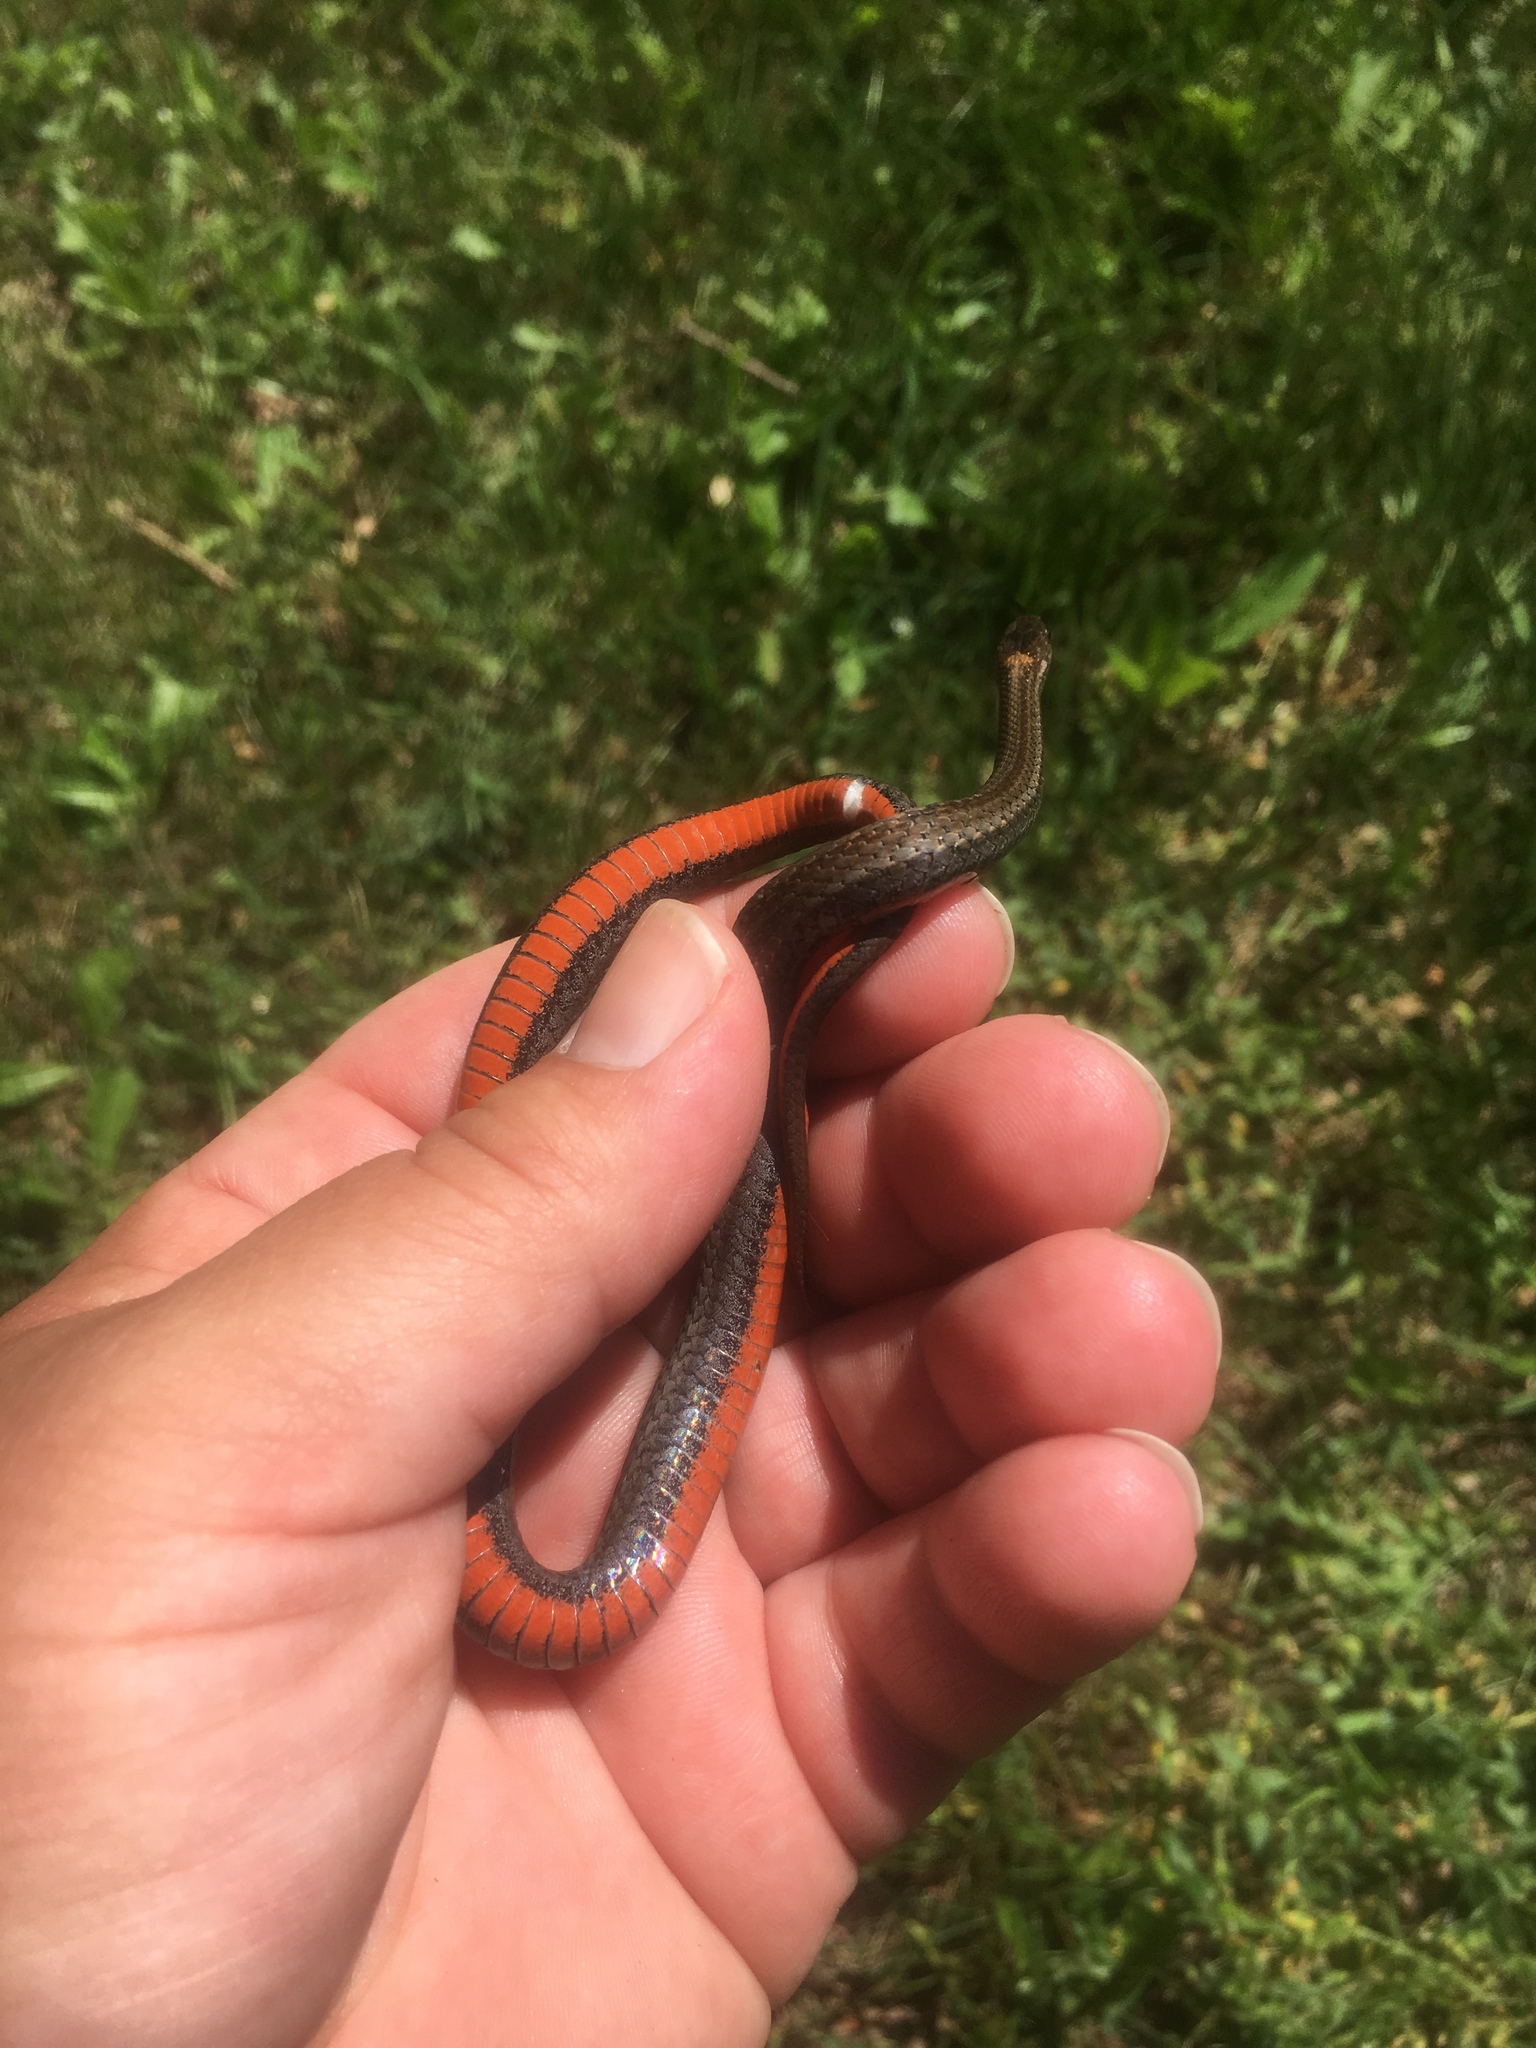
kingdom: Animalia
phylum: Chordata
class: Squamata
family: Colubridae
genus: Storeria
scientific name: Storeria occipitomaculata
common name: Redbelly snake
